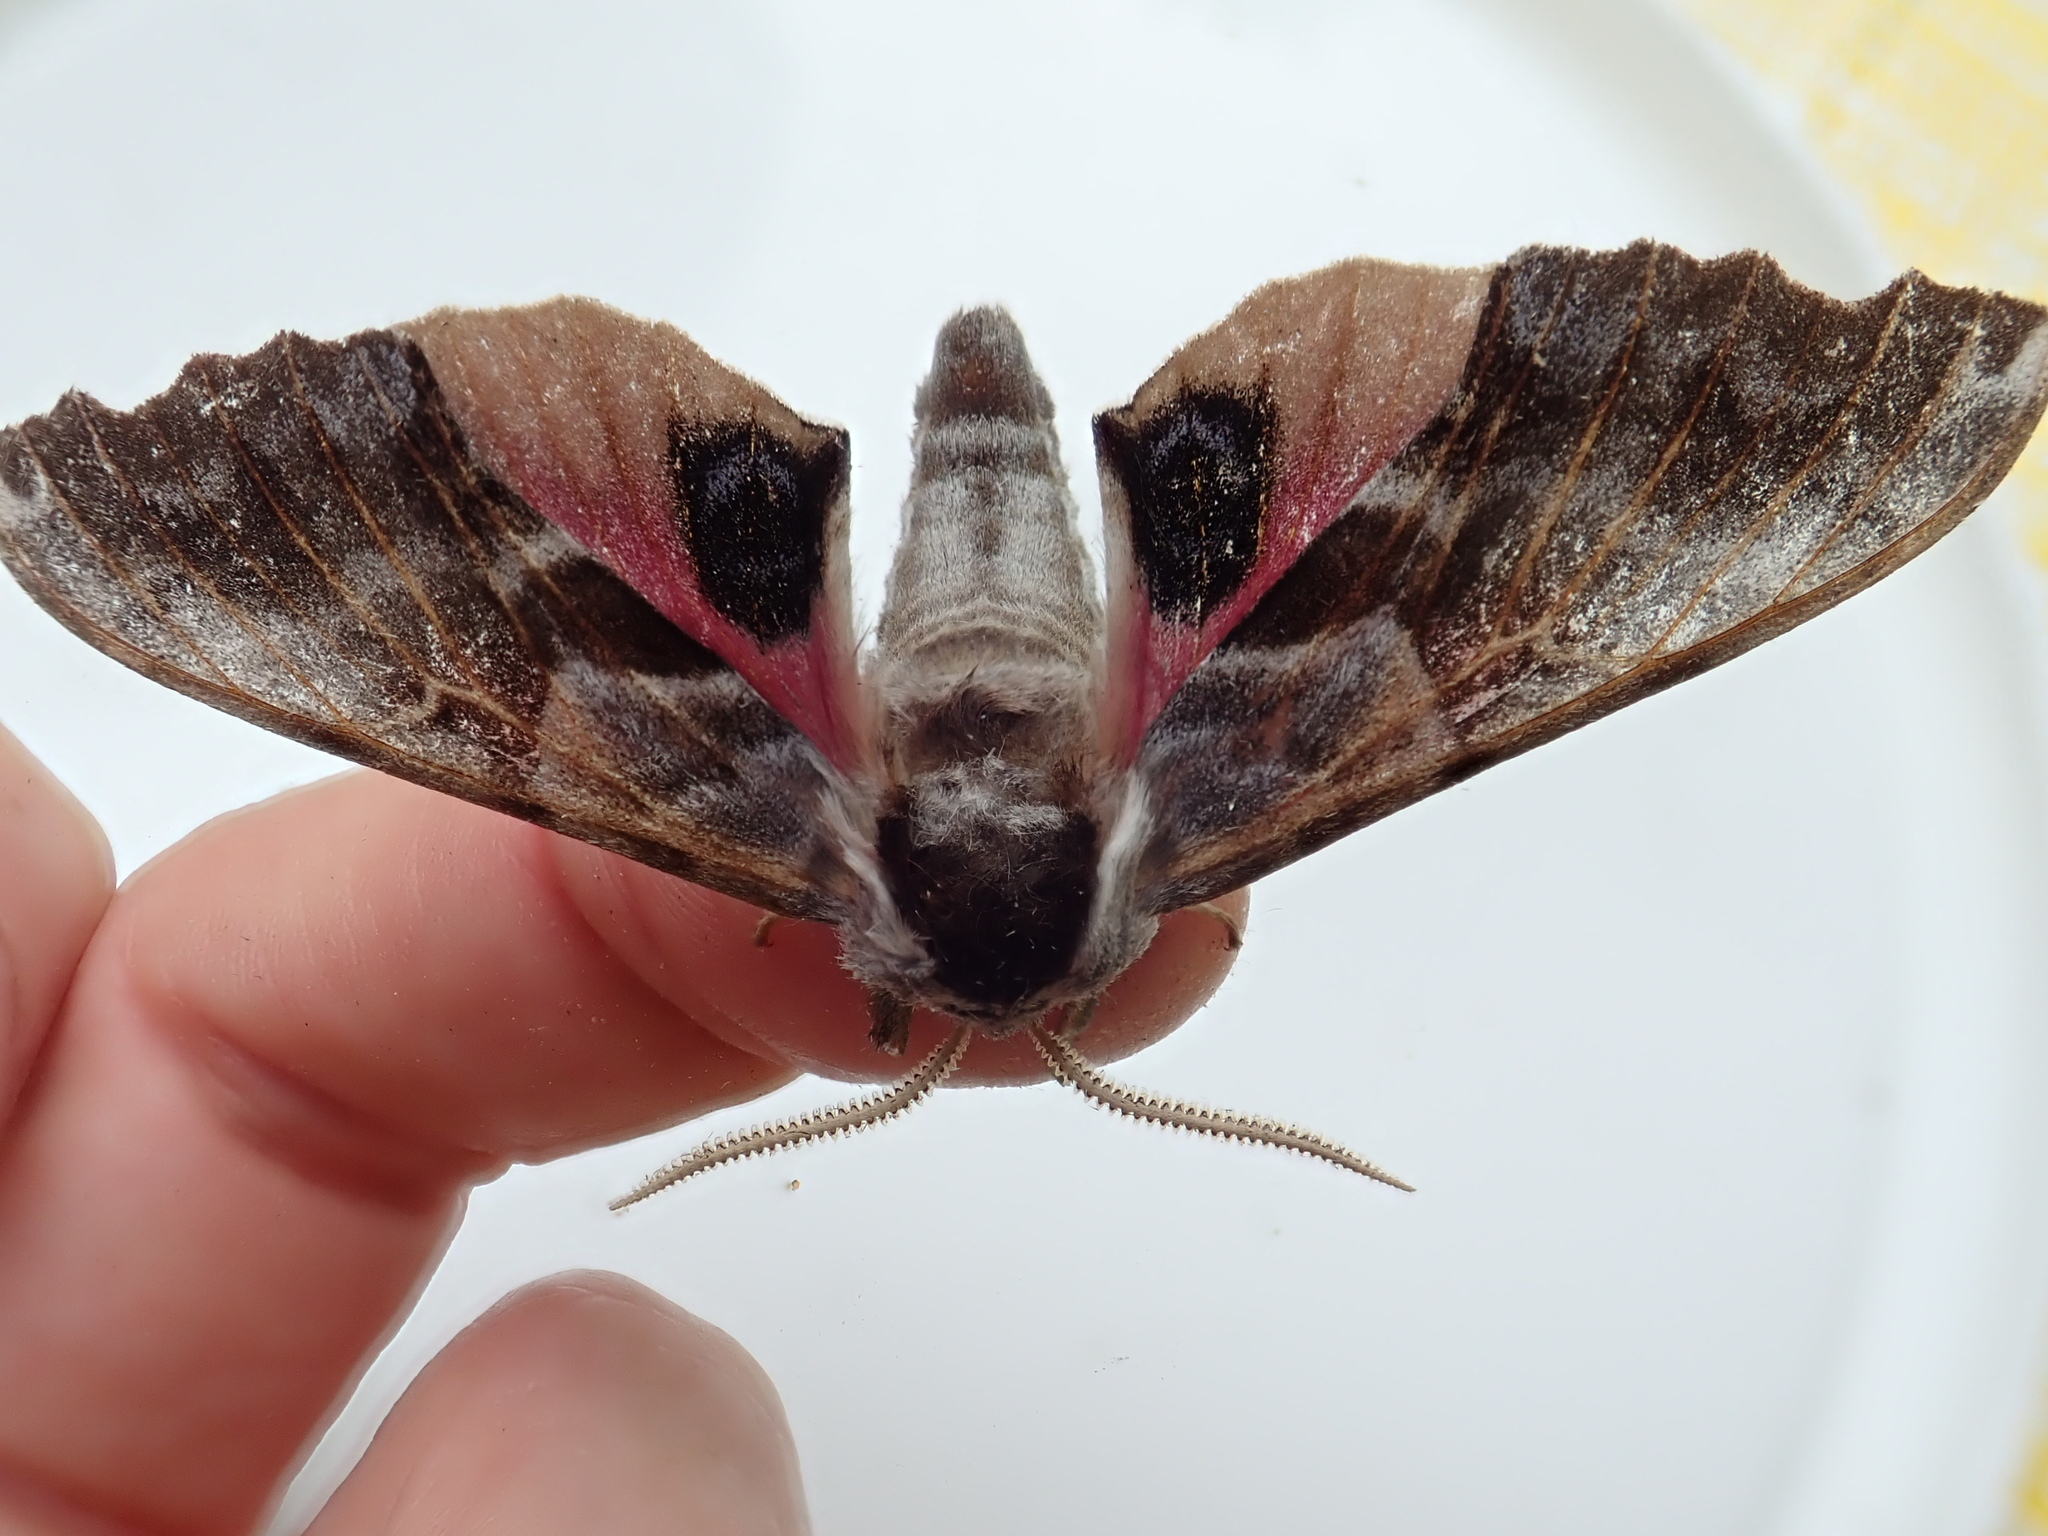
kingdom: Animalia
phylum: Arthropoda
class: Insecta
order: Lepidoptera
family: Sphingidae
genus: Smerinthus
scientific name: Smerinthus cerisyi
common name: Cerisy's sphinx moth
